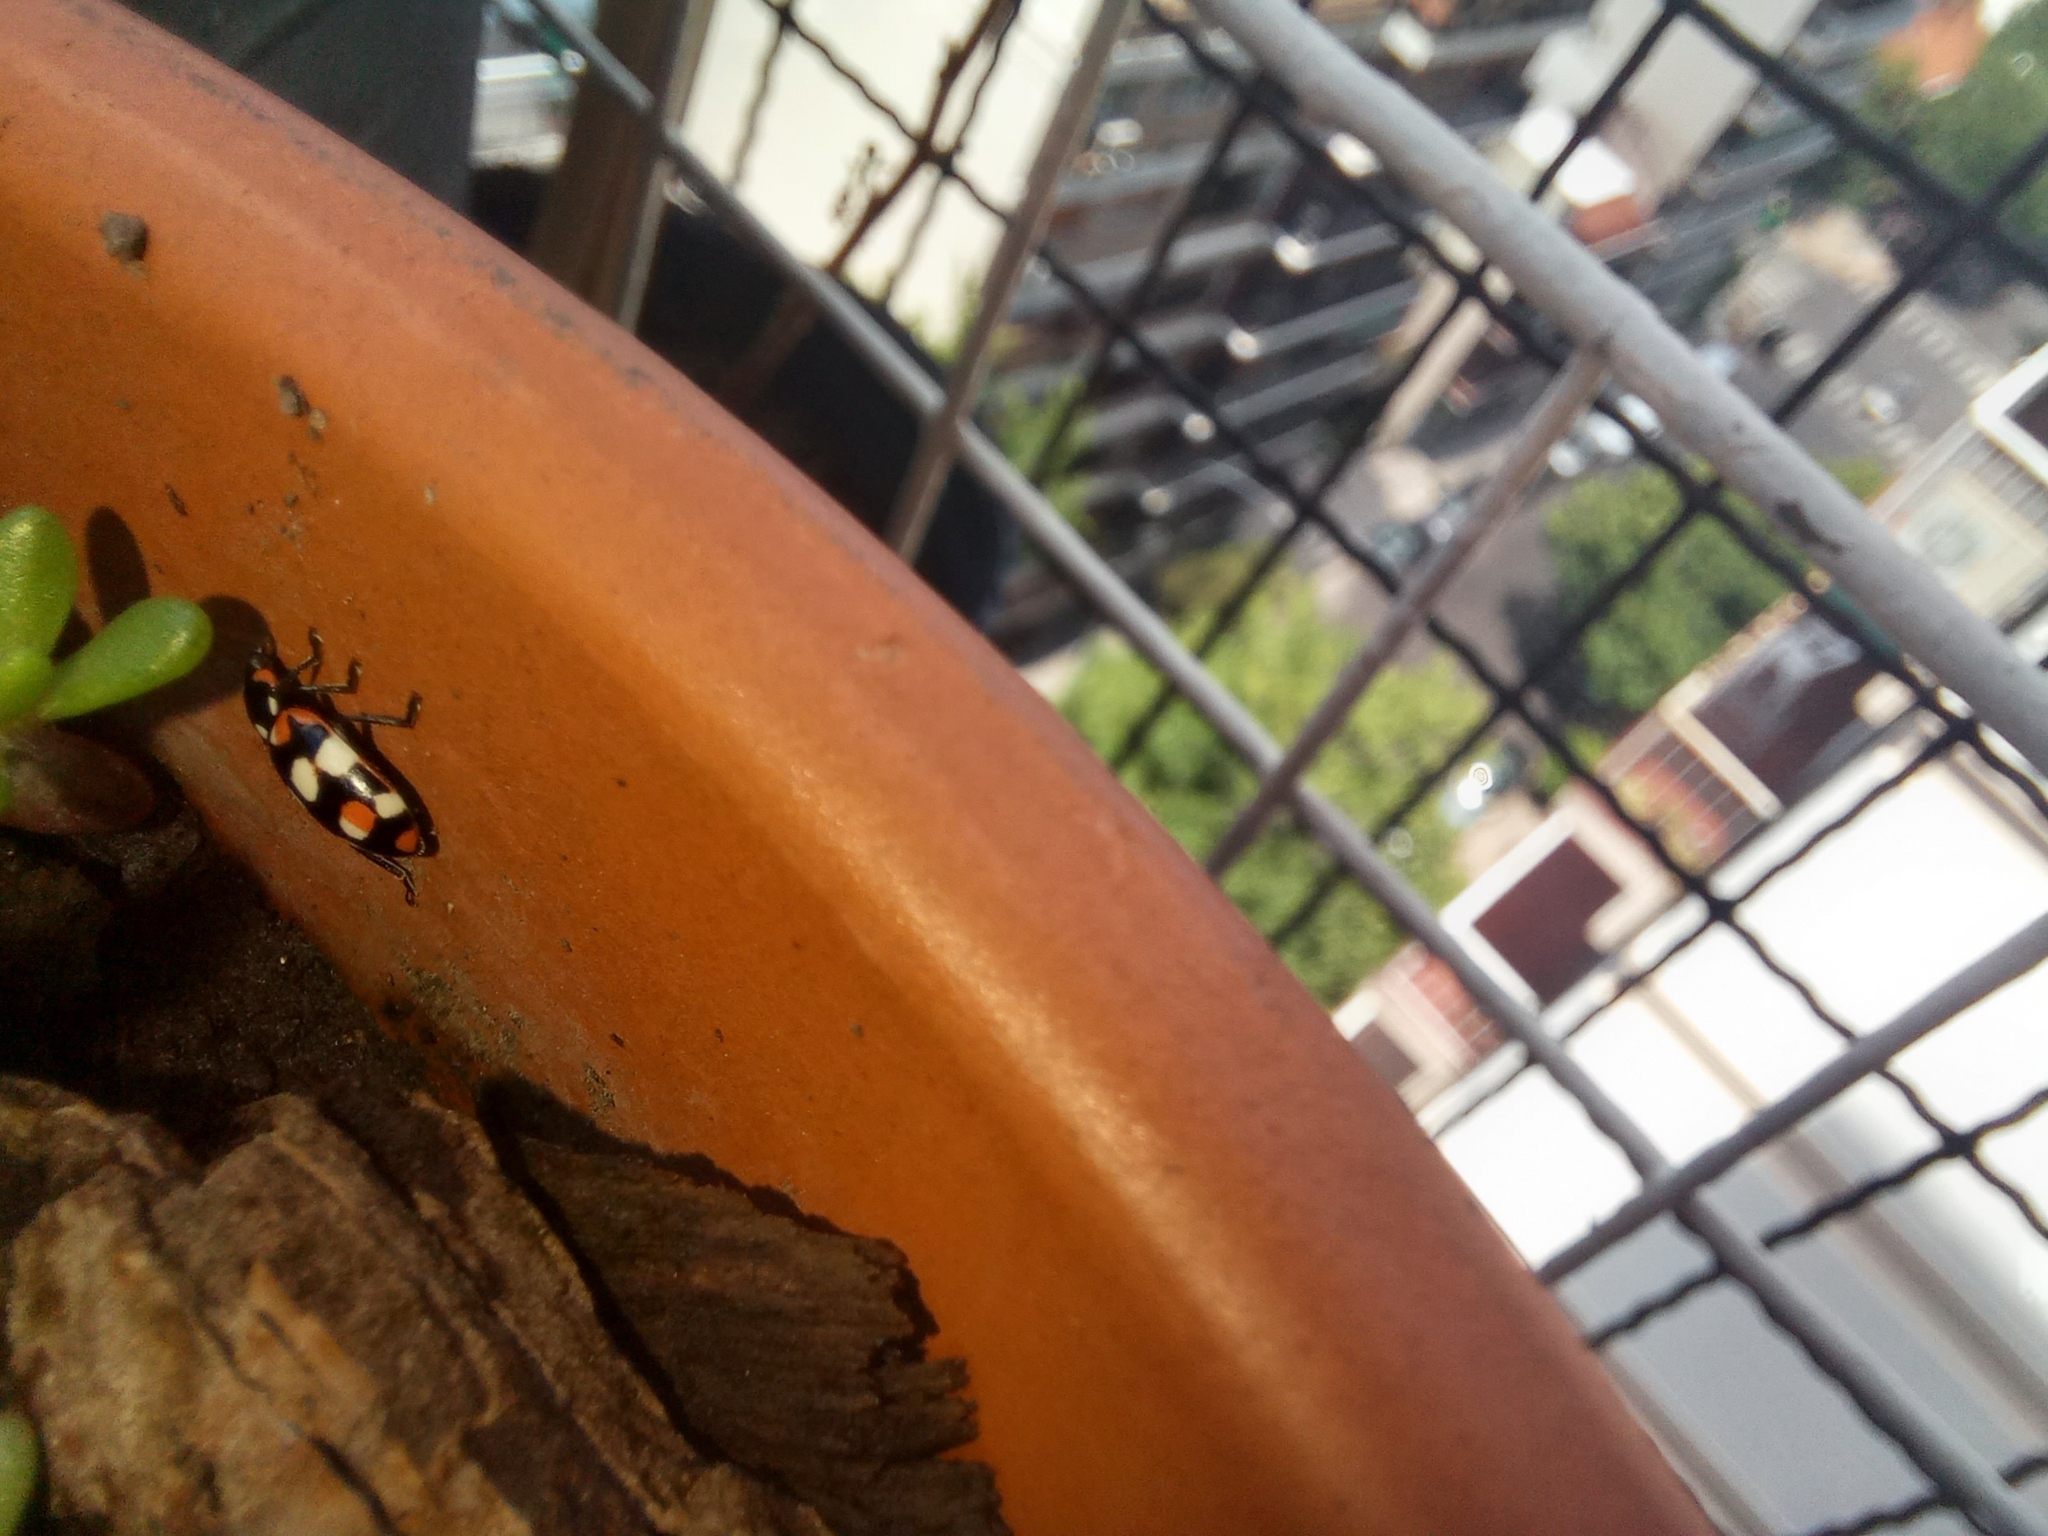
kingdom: Animalia
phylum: Arthropoda
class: Insecta
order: Coleoptera
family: Coccinellidae
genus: Eriopis
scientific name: Eriopis connexa
